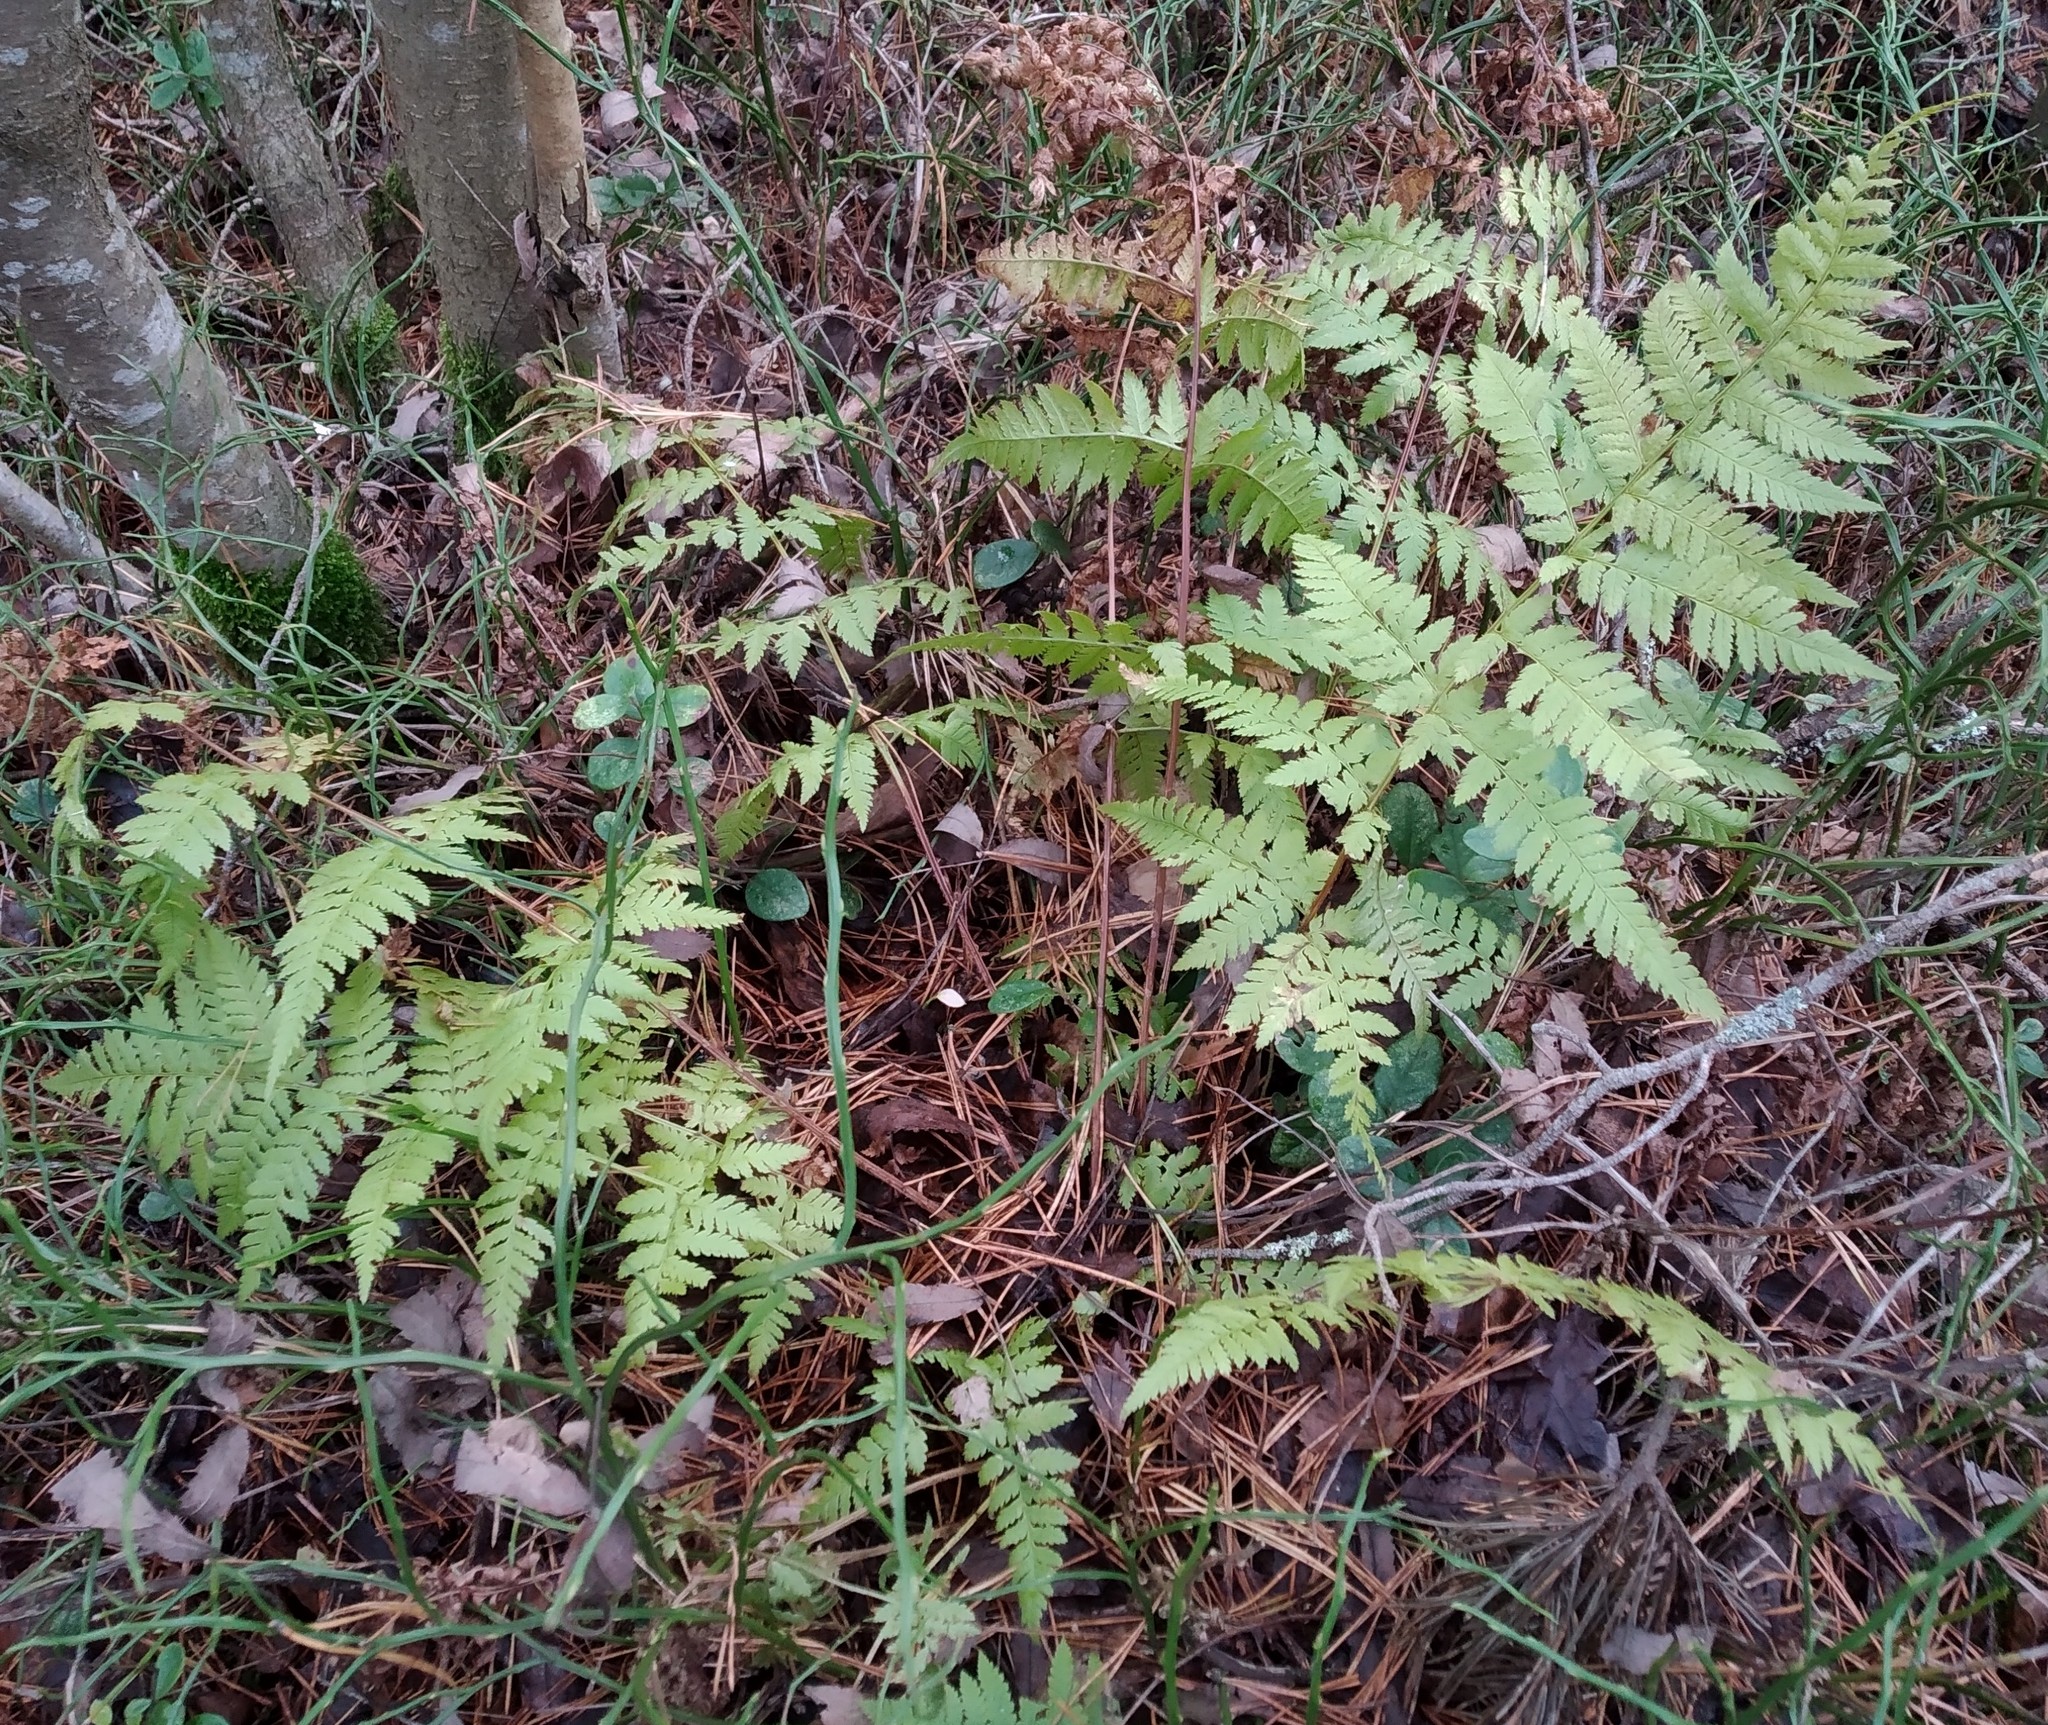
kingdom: Plantae
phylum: Tracheophyta
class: Polypodiopsida
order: Polypodiales
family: Dryopteridaceae
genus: Dryopteris
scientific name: Dryopteris carthusiana
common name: Narrow buckler-fern
